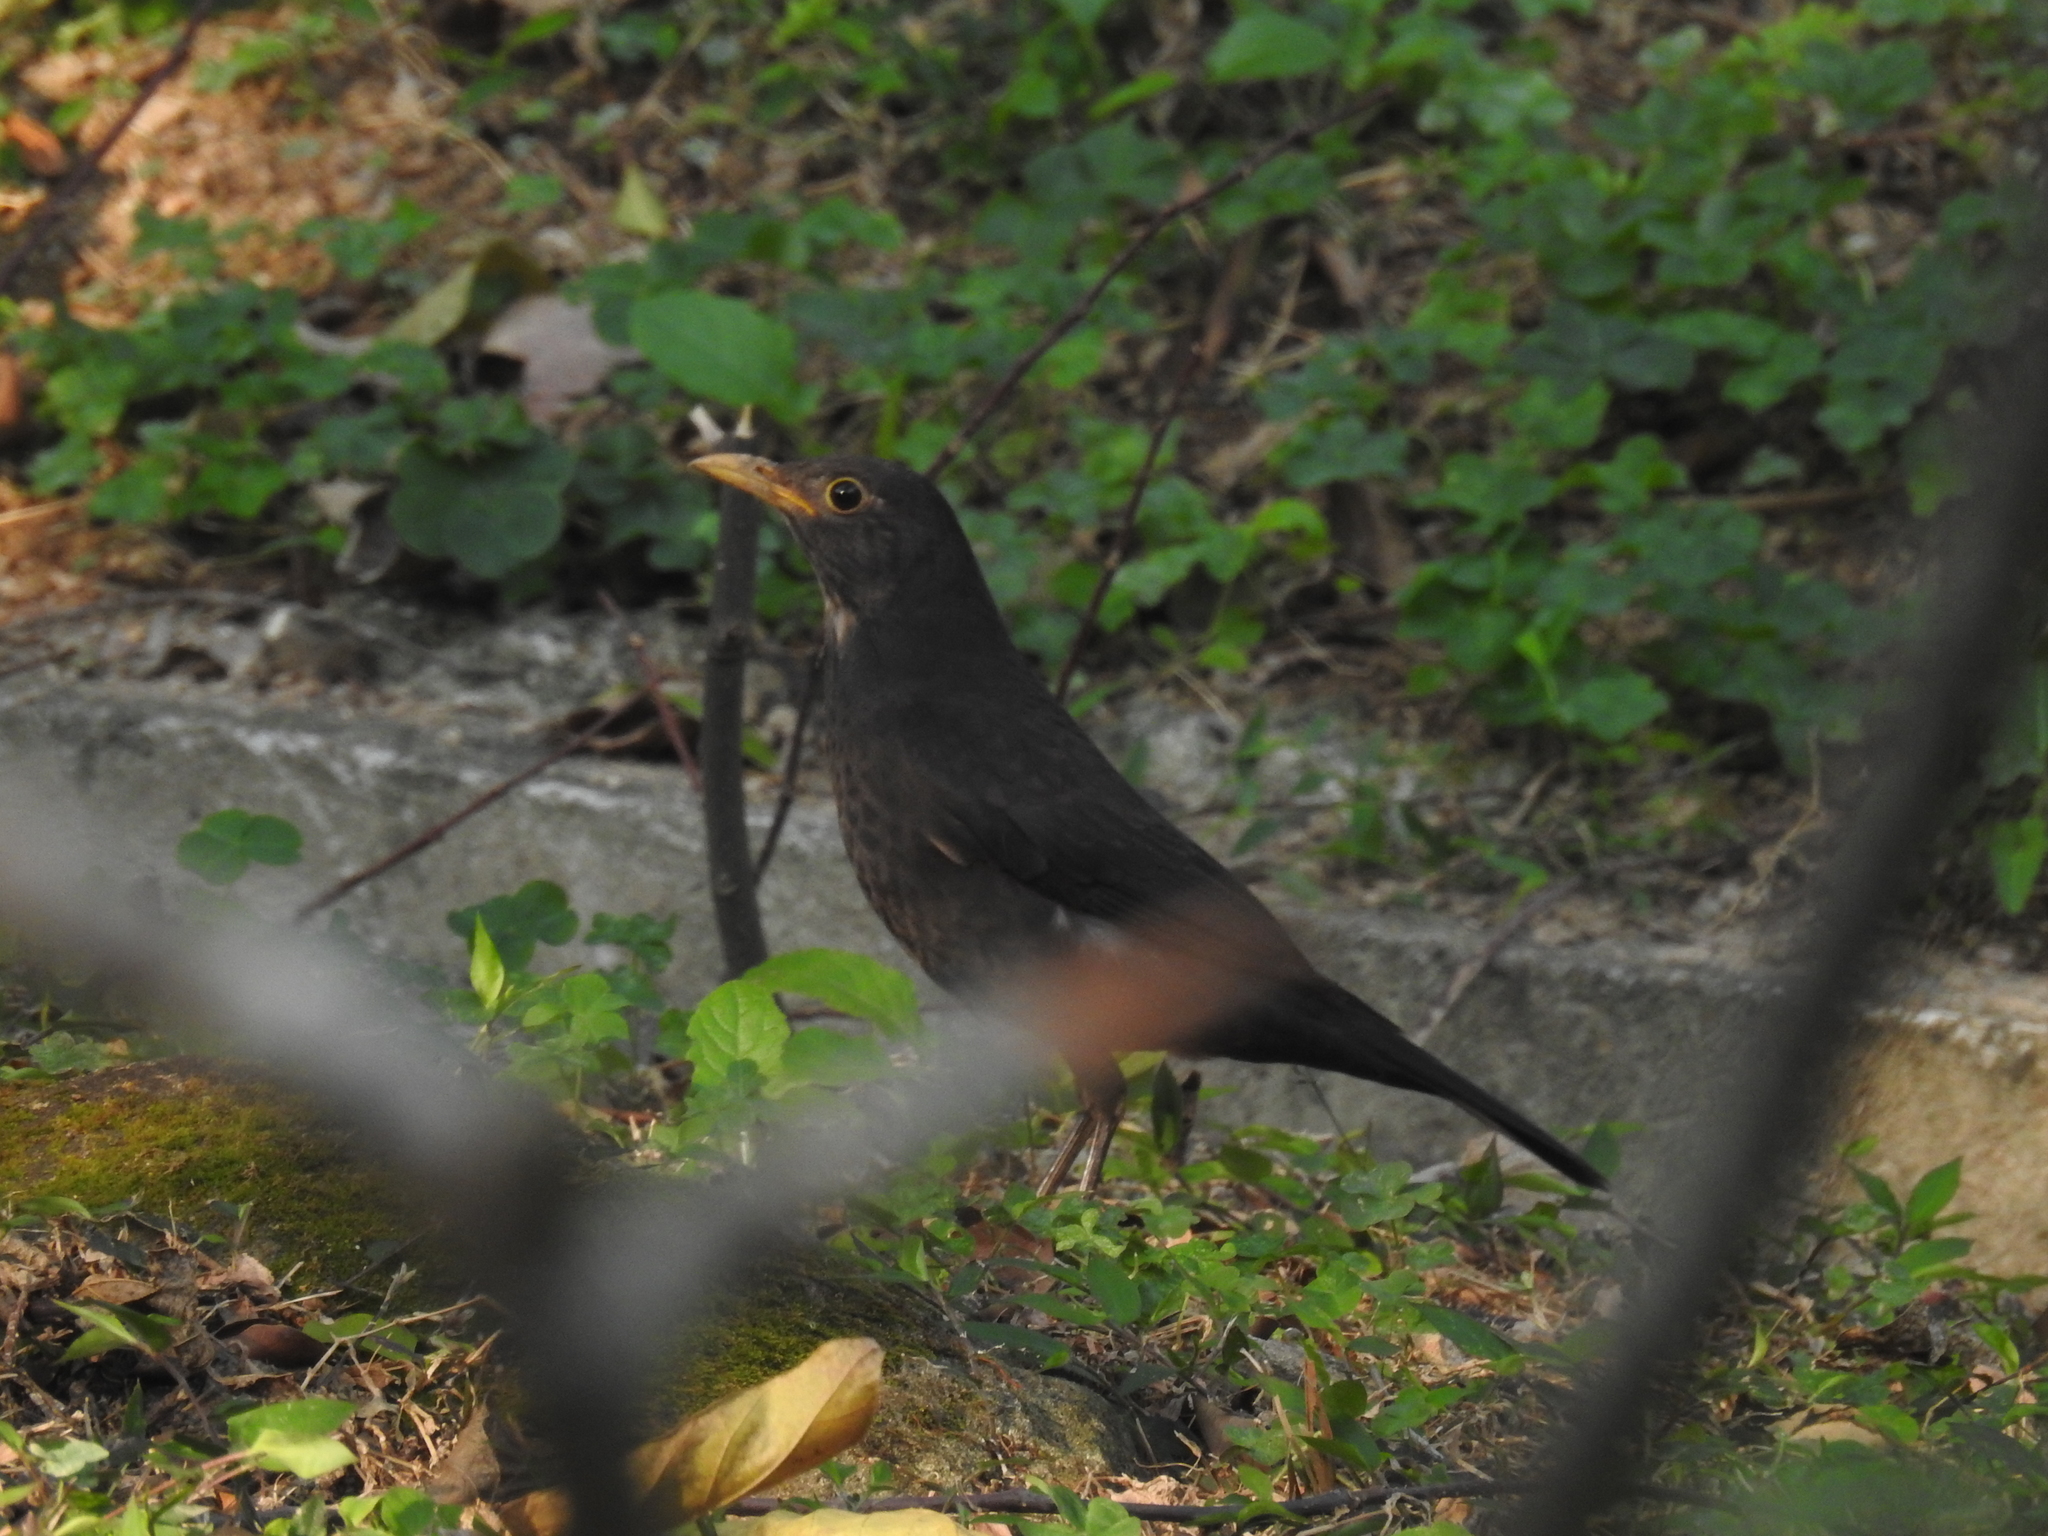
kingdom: Animalia
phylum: Chordata
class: Aves
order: Passeriformes
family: Turdidae
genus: Turdus
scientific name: Turdus mandarinus
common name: Chinese blackbird
